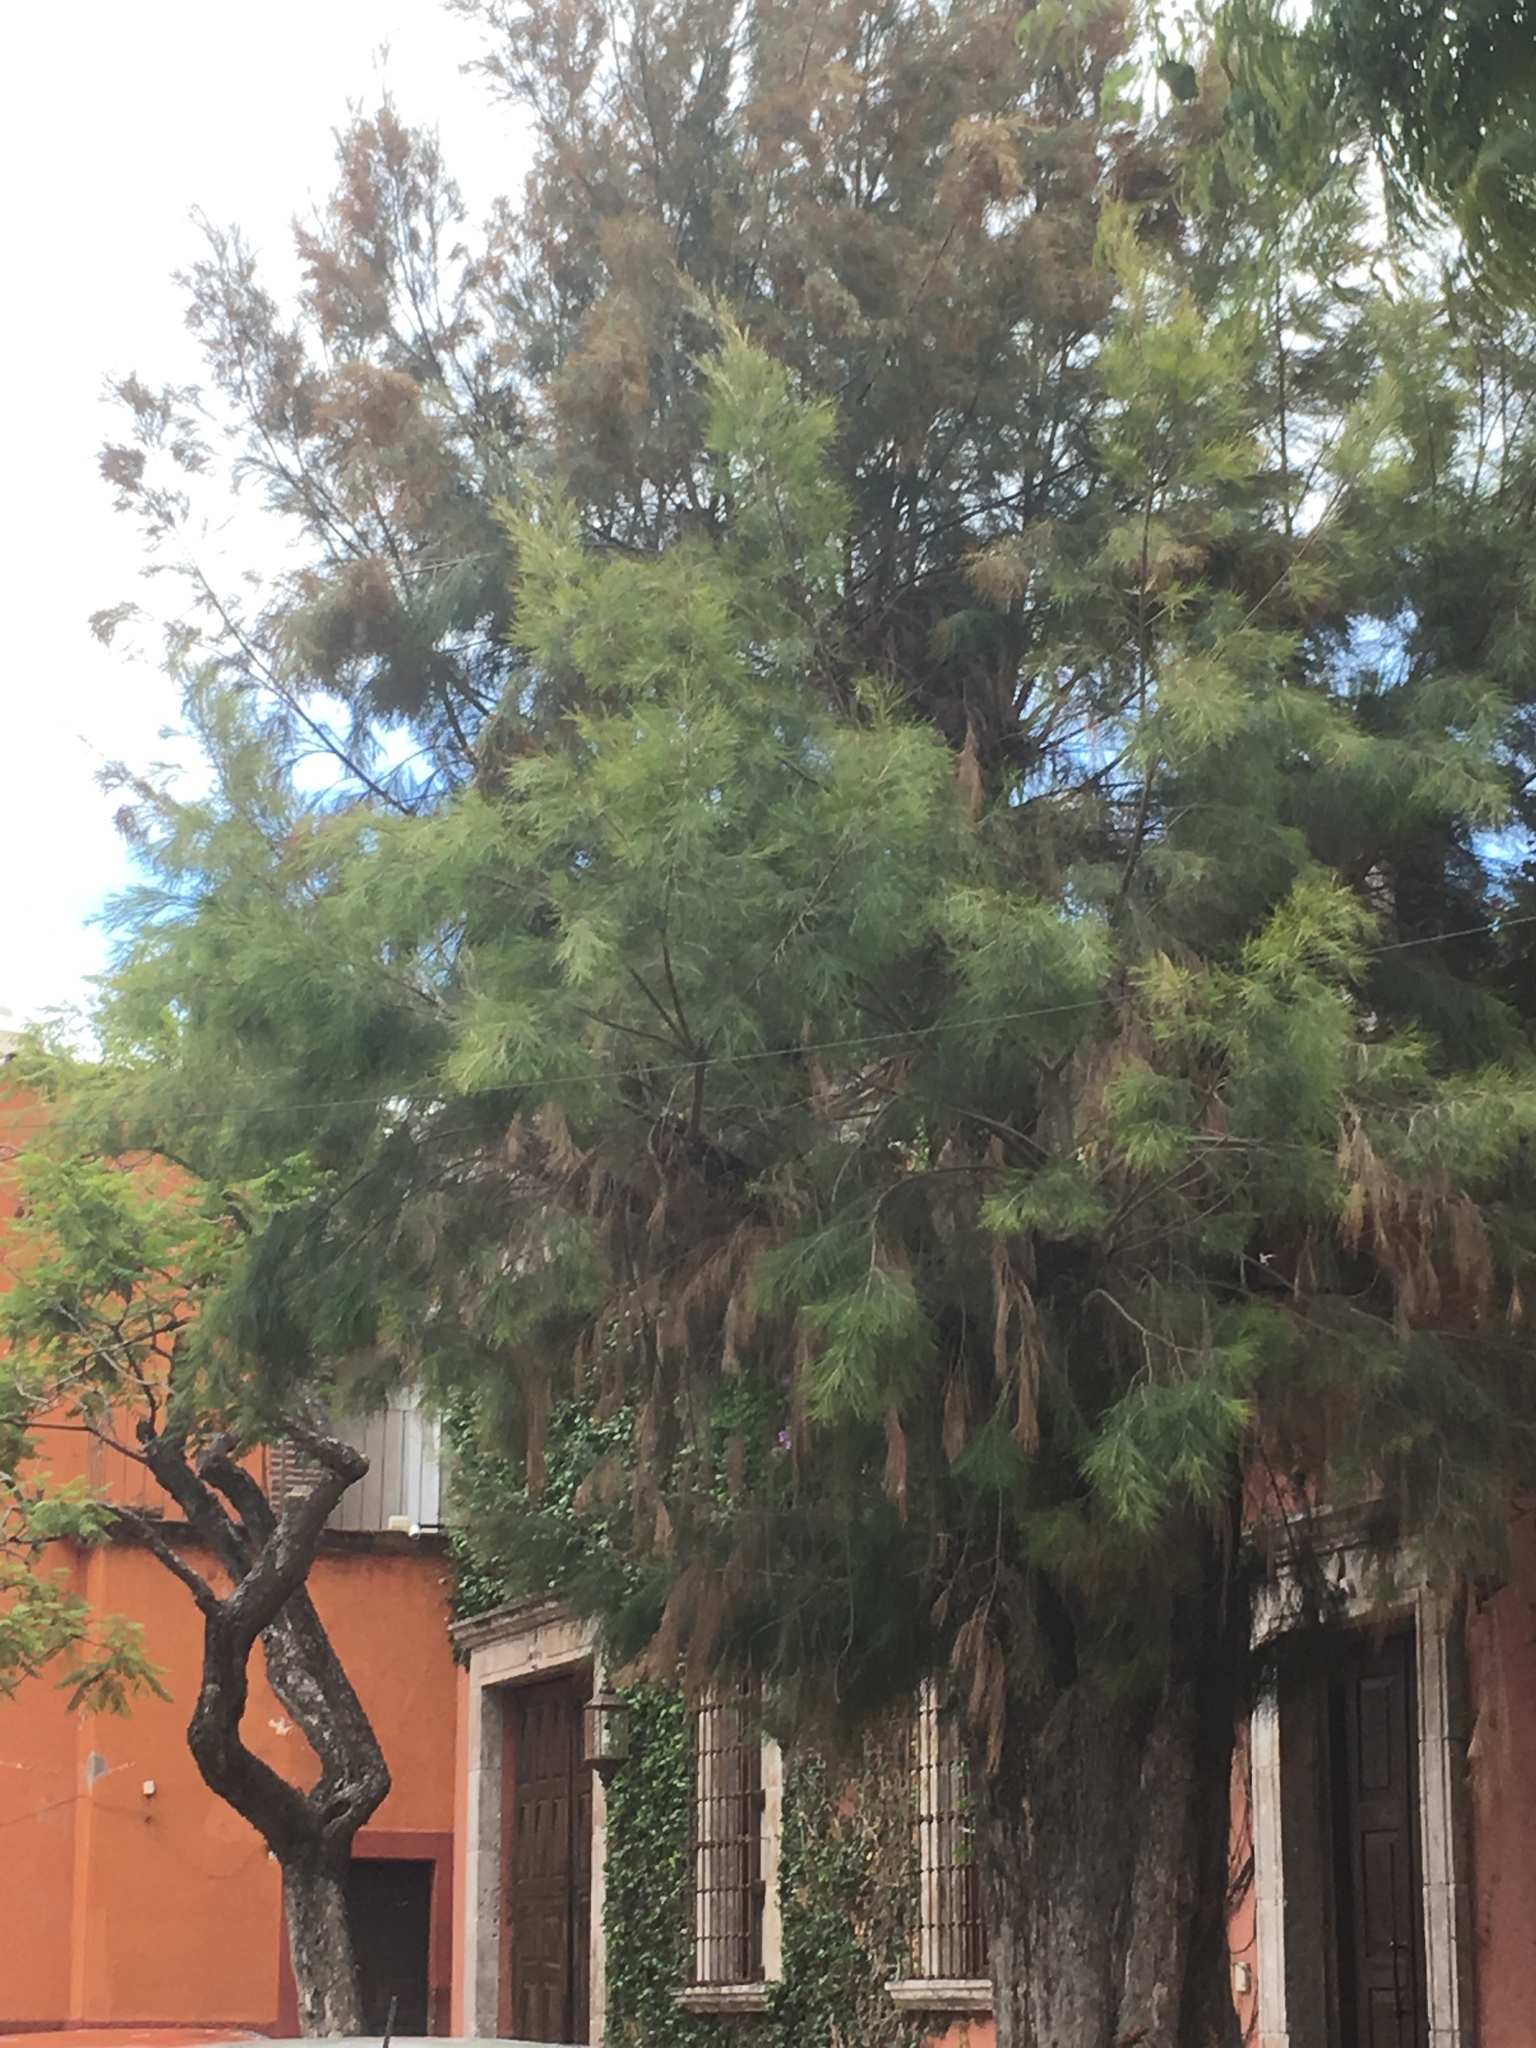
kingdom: Plantae
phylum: Tracheophyta
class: Magnoliopsida
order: Fagales
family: Casuarinaceae
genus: Casuarina
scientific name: Casuarina equisetifolia
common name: Beach sheoak
